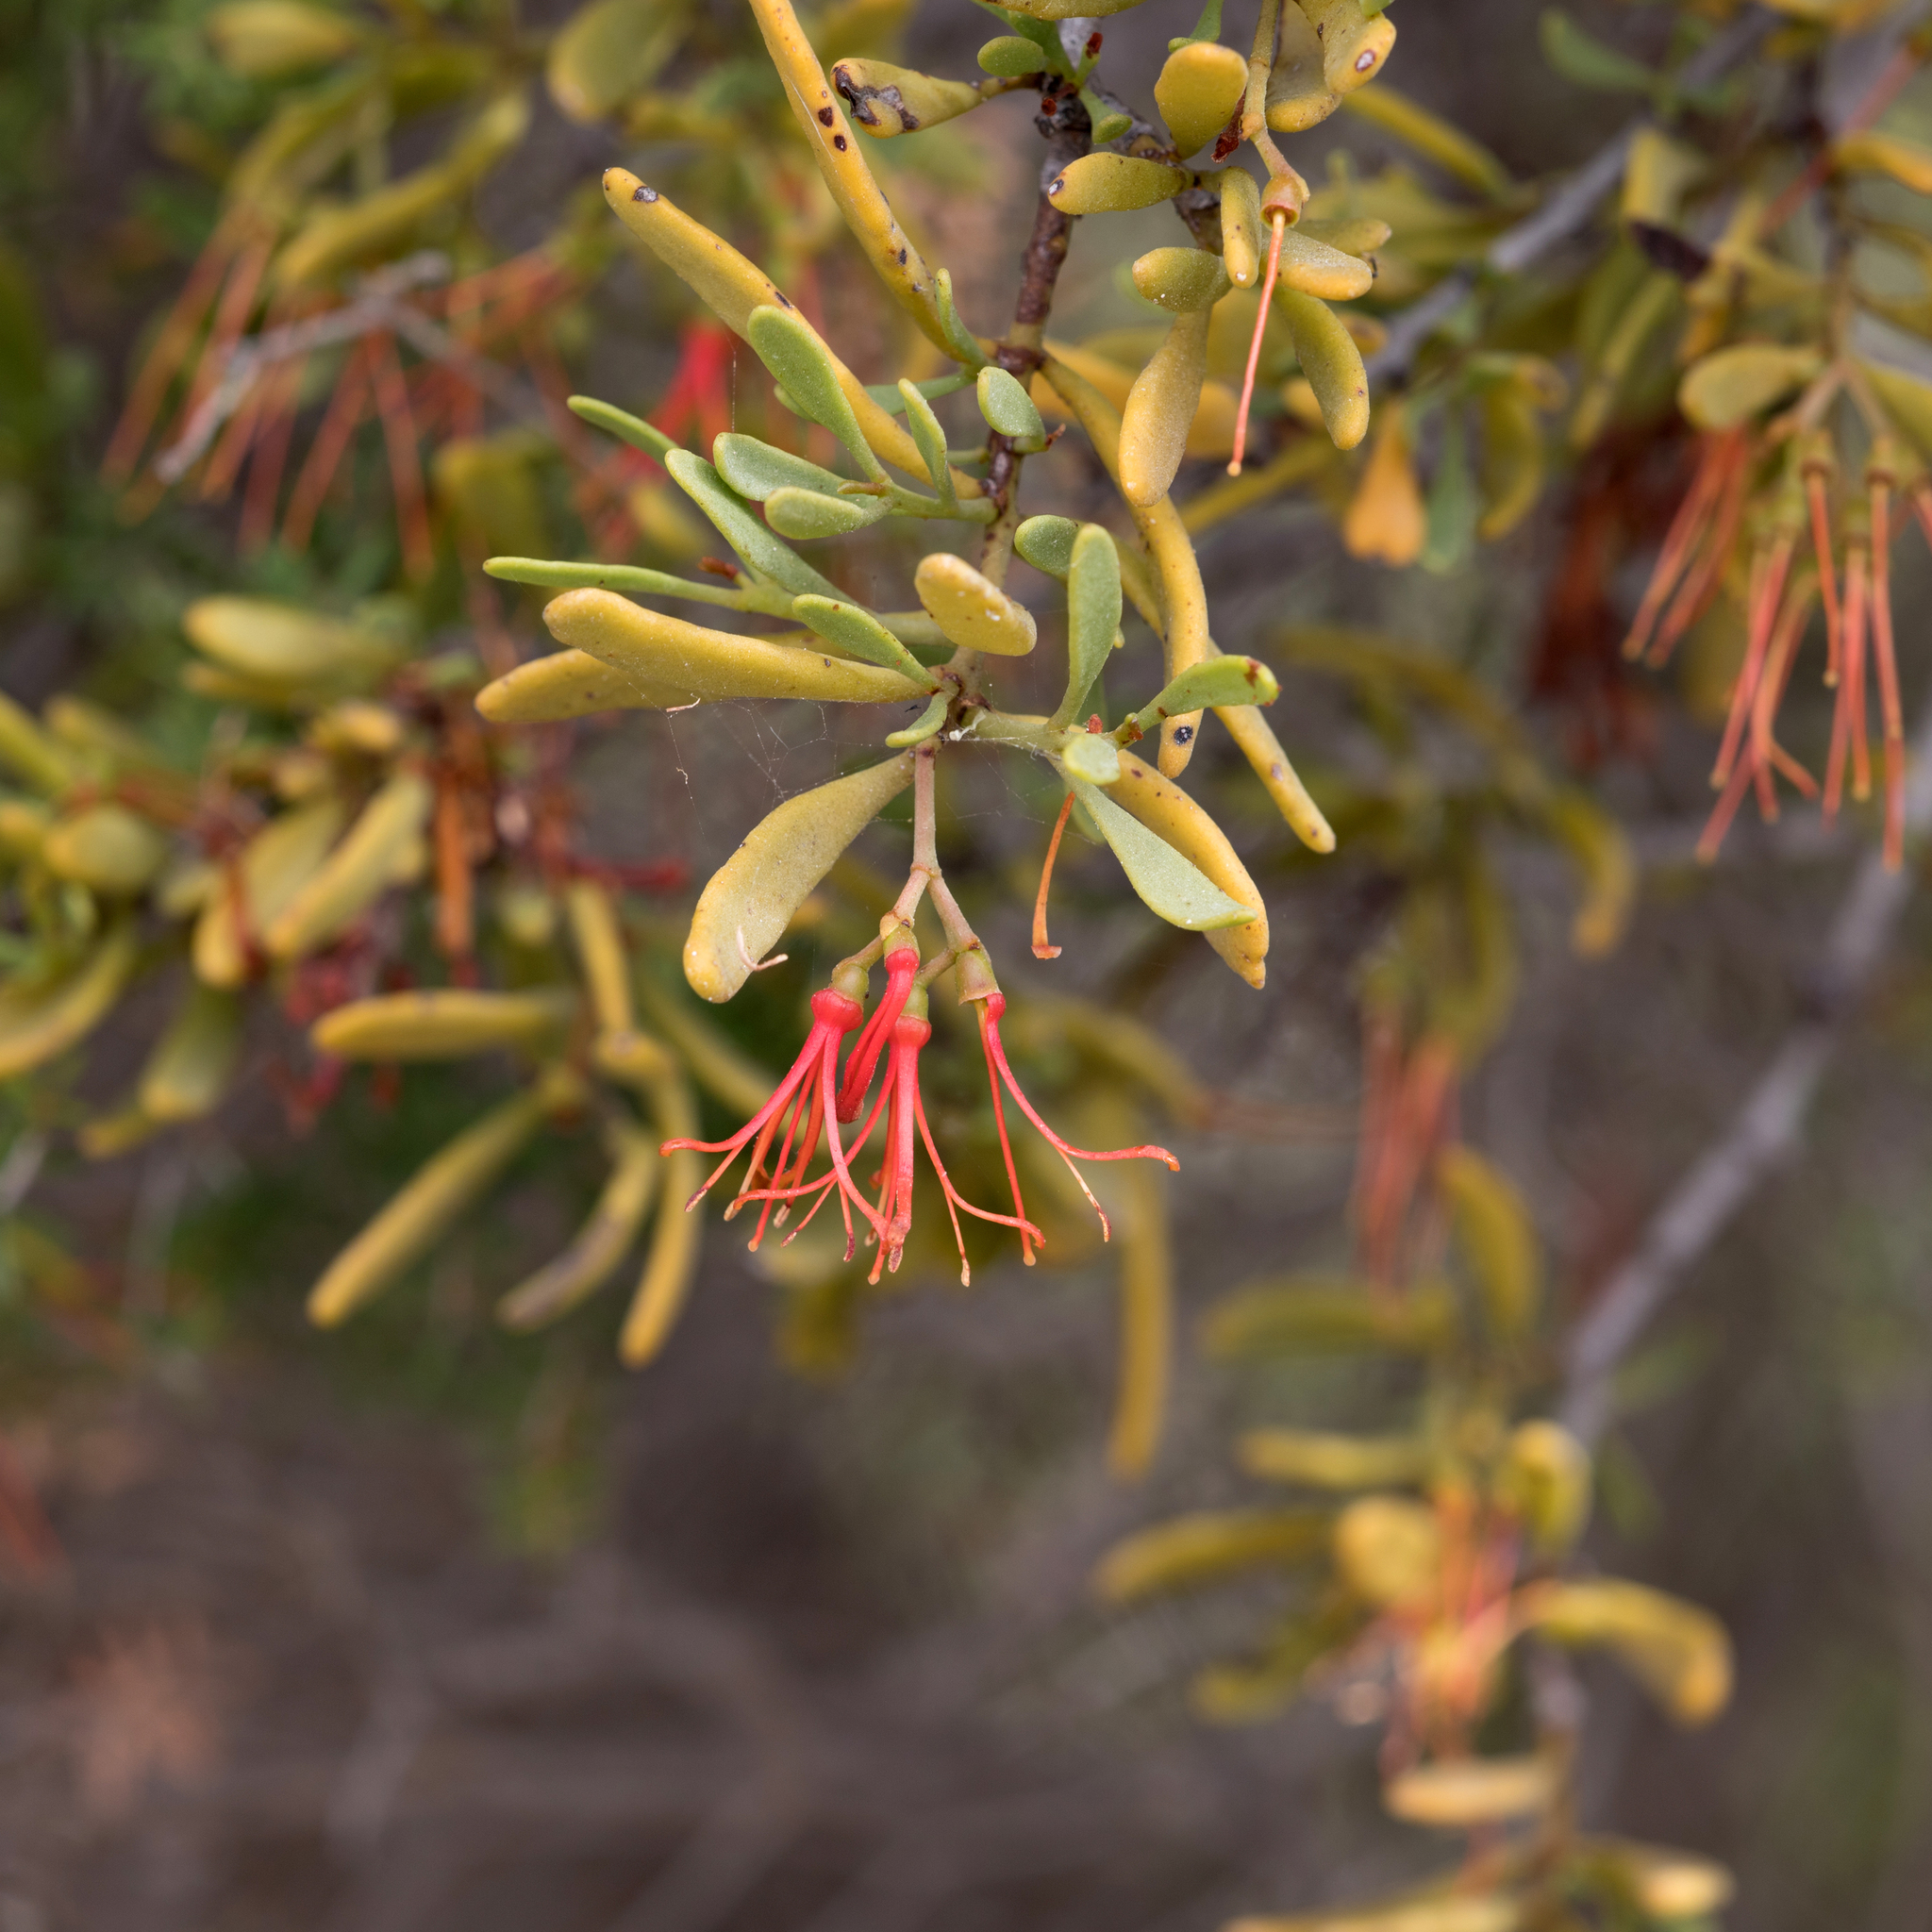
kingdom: Plantae
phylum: Tracheophyta
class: Magnoliopsida
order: Santalales
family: Loranthaceae
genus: Amyema
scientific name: Amyema melaleucae
